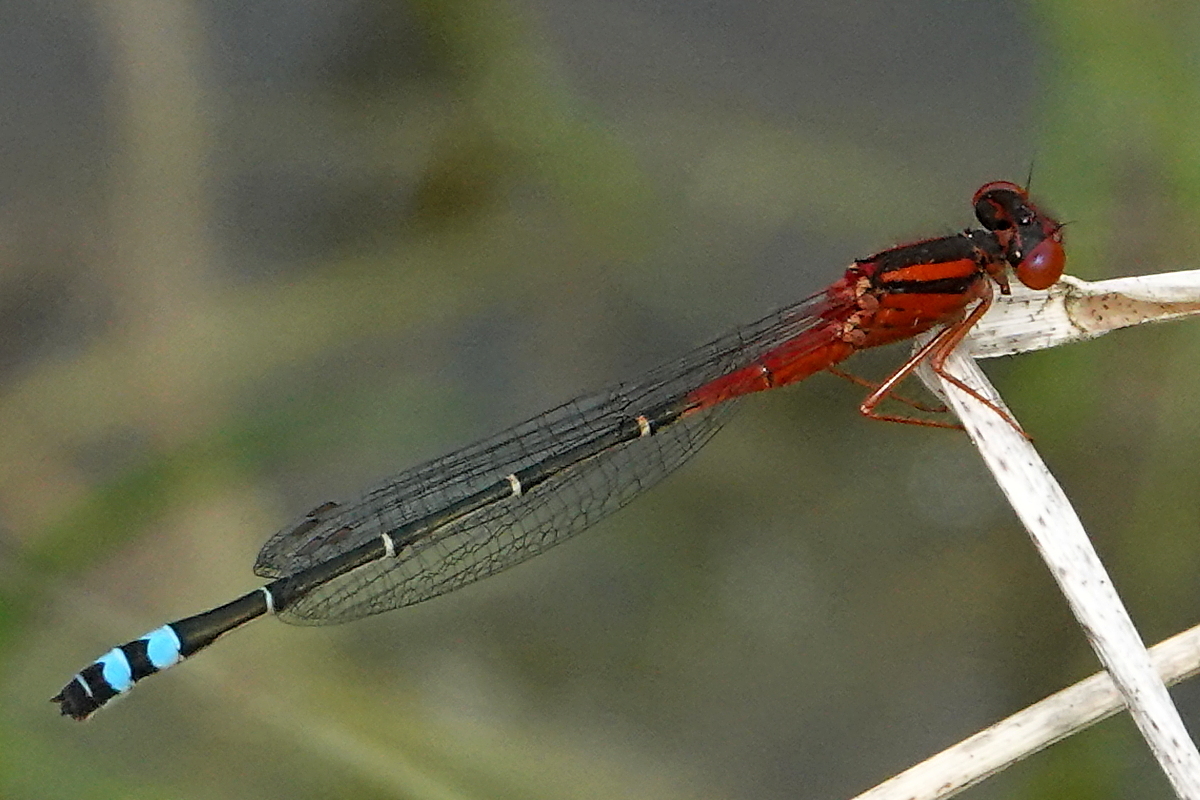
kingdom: Animalia
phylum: Arthropoda
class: Insecta
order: Odonata
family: Coenagrionidae
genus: Xanthagrion
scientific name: Xanthagrion erythroneurum
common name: Red and blue damsel
